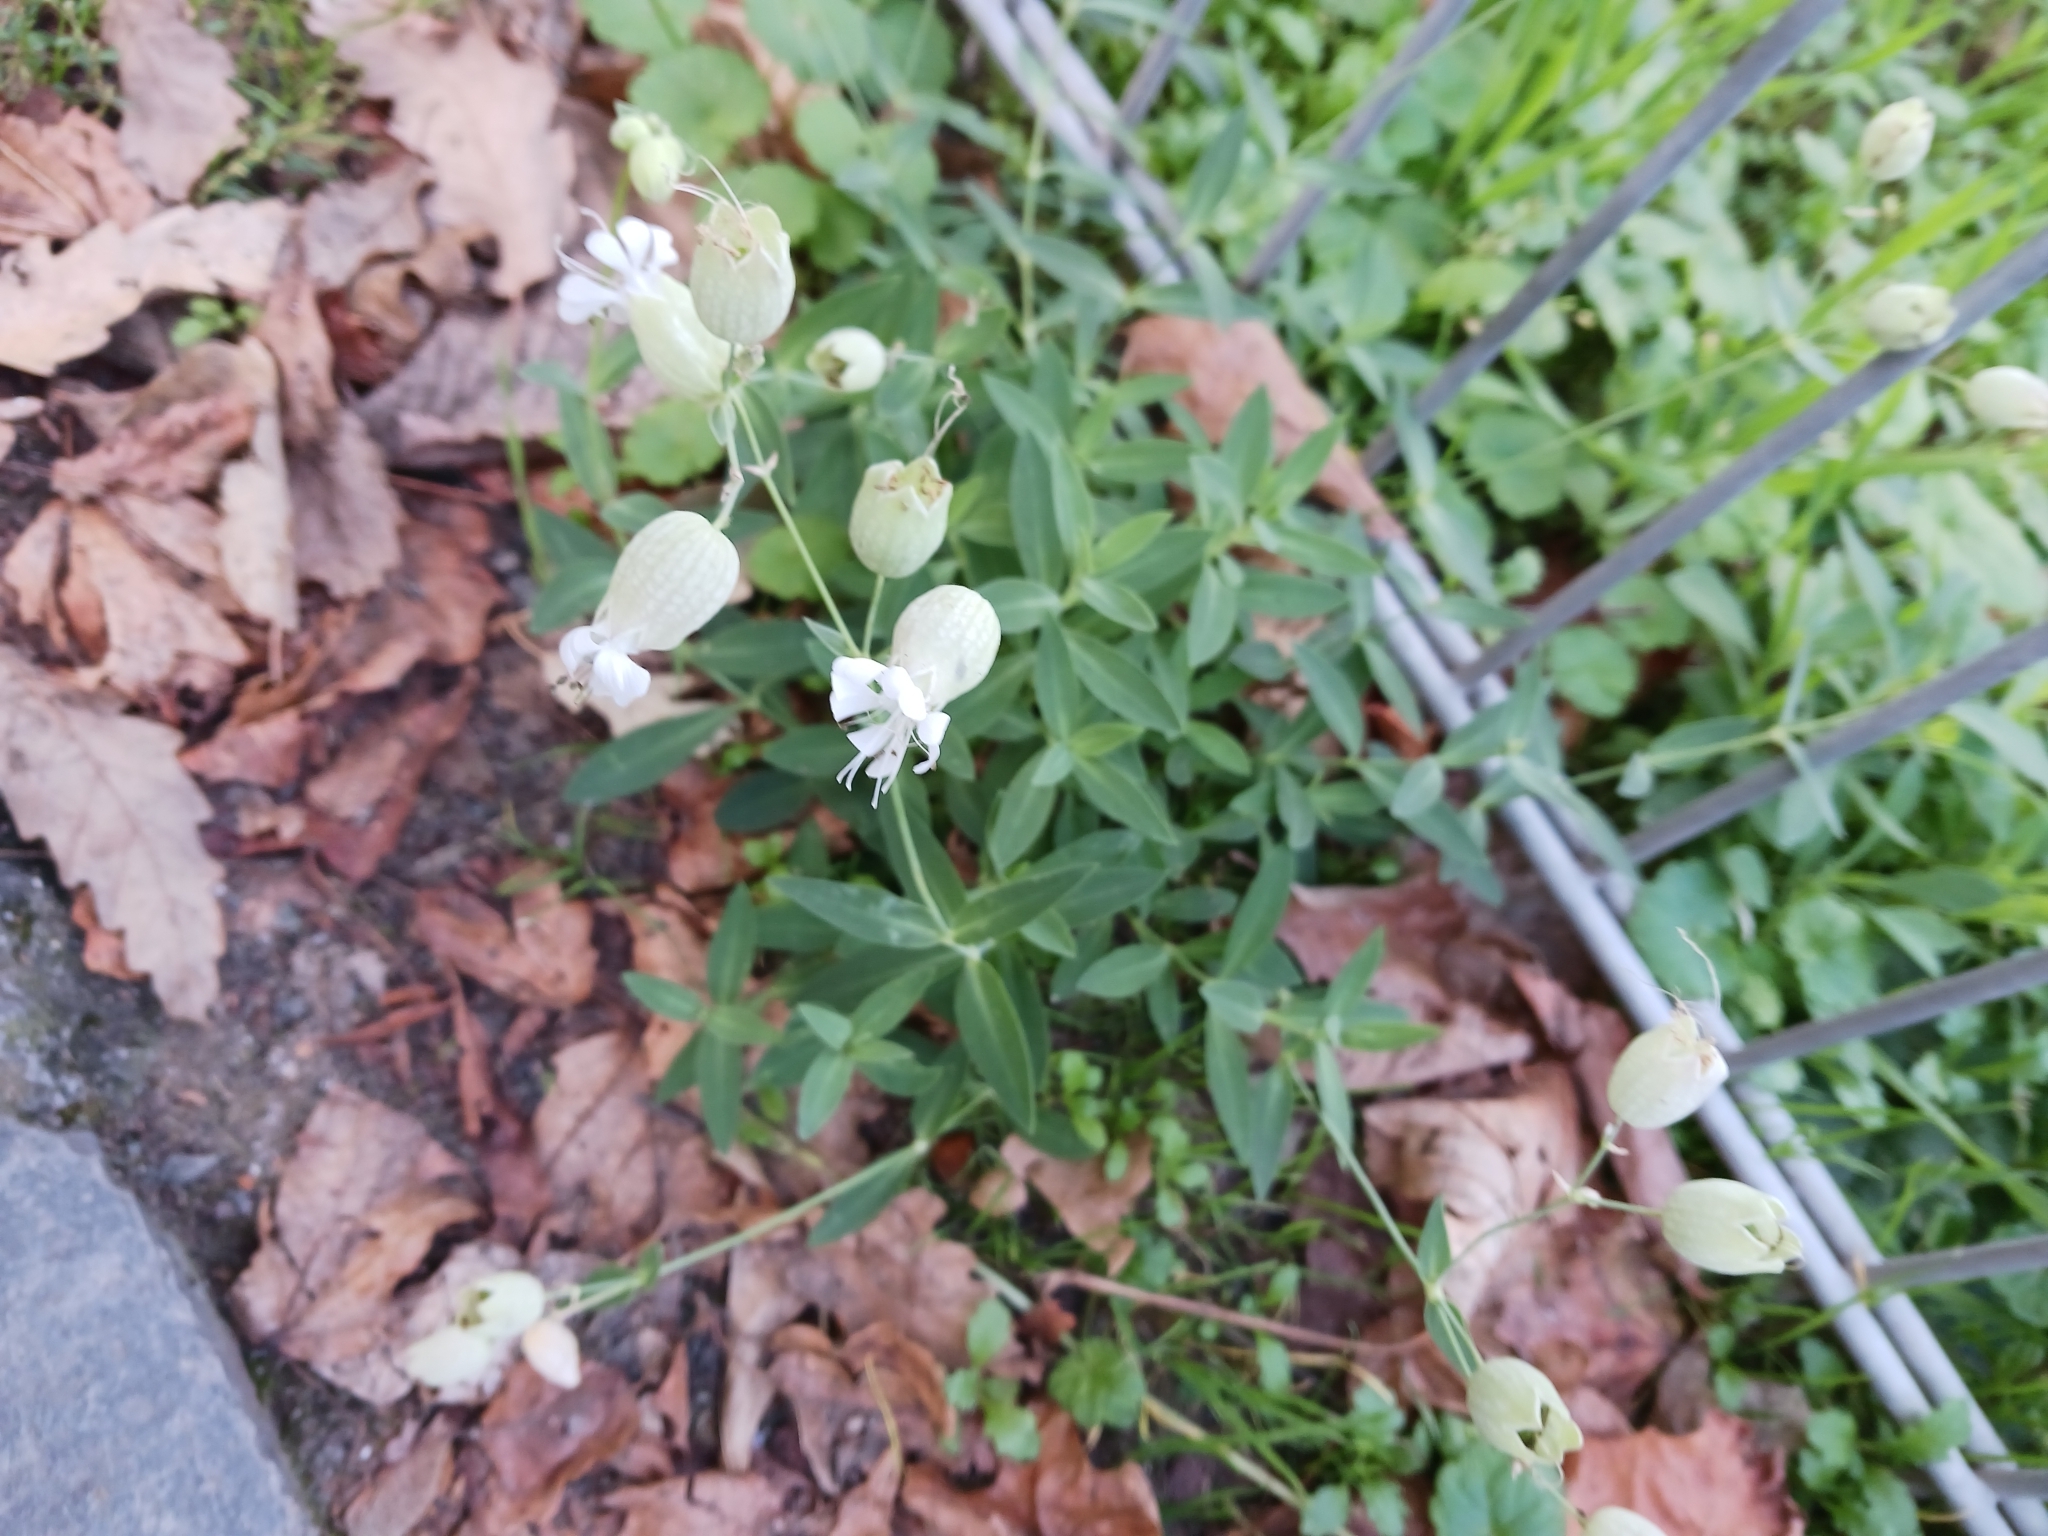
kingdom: Plantae
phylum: Tracheophyta
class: Magnoliopsida
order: Caryophyllales
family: Caryophyllaceae
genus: Silene
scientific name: Silene vulgaris
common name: Bladder campion
